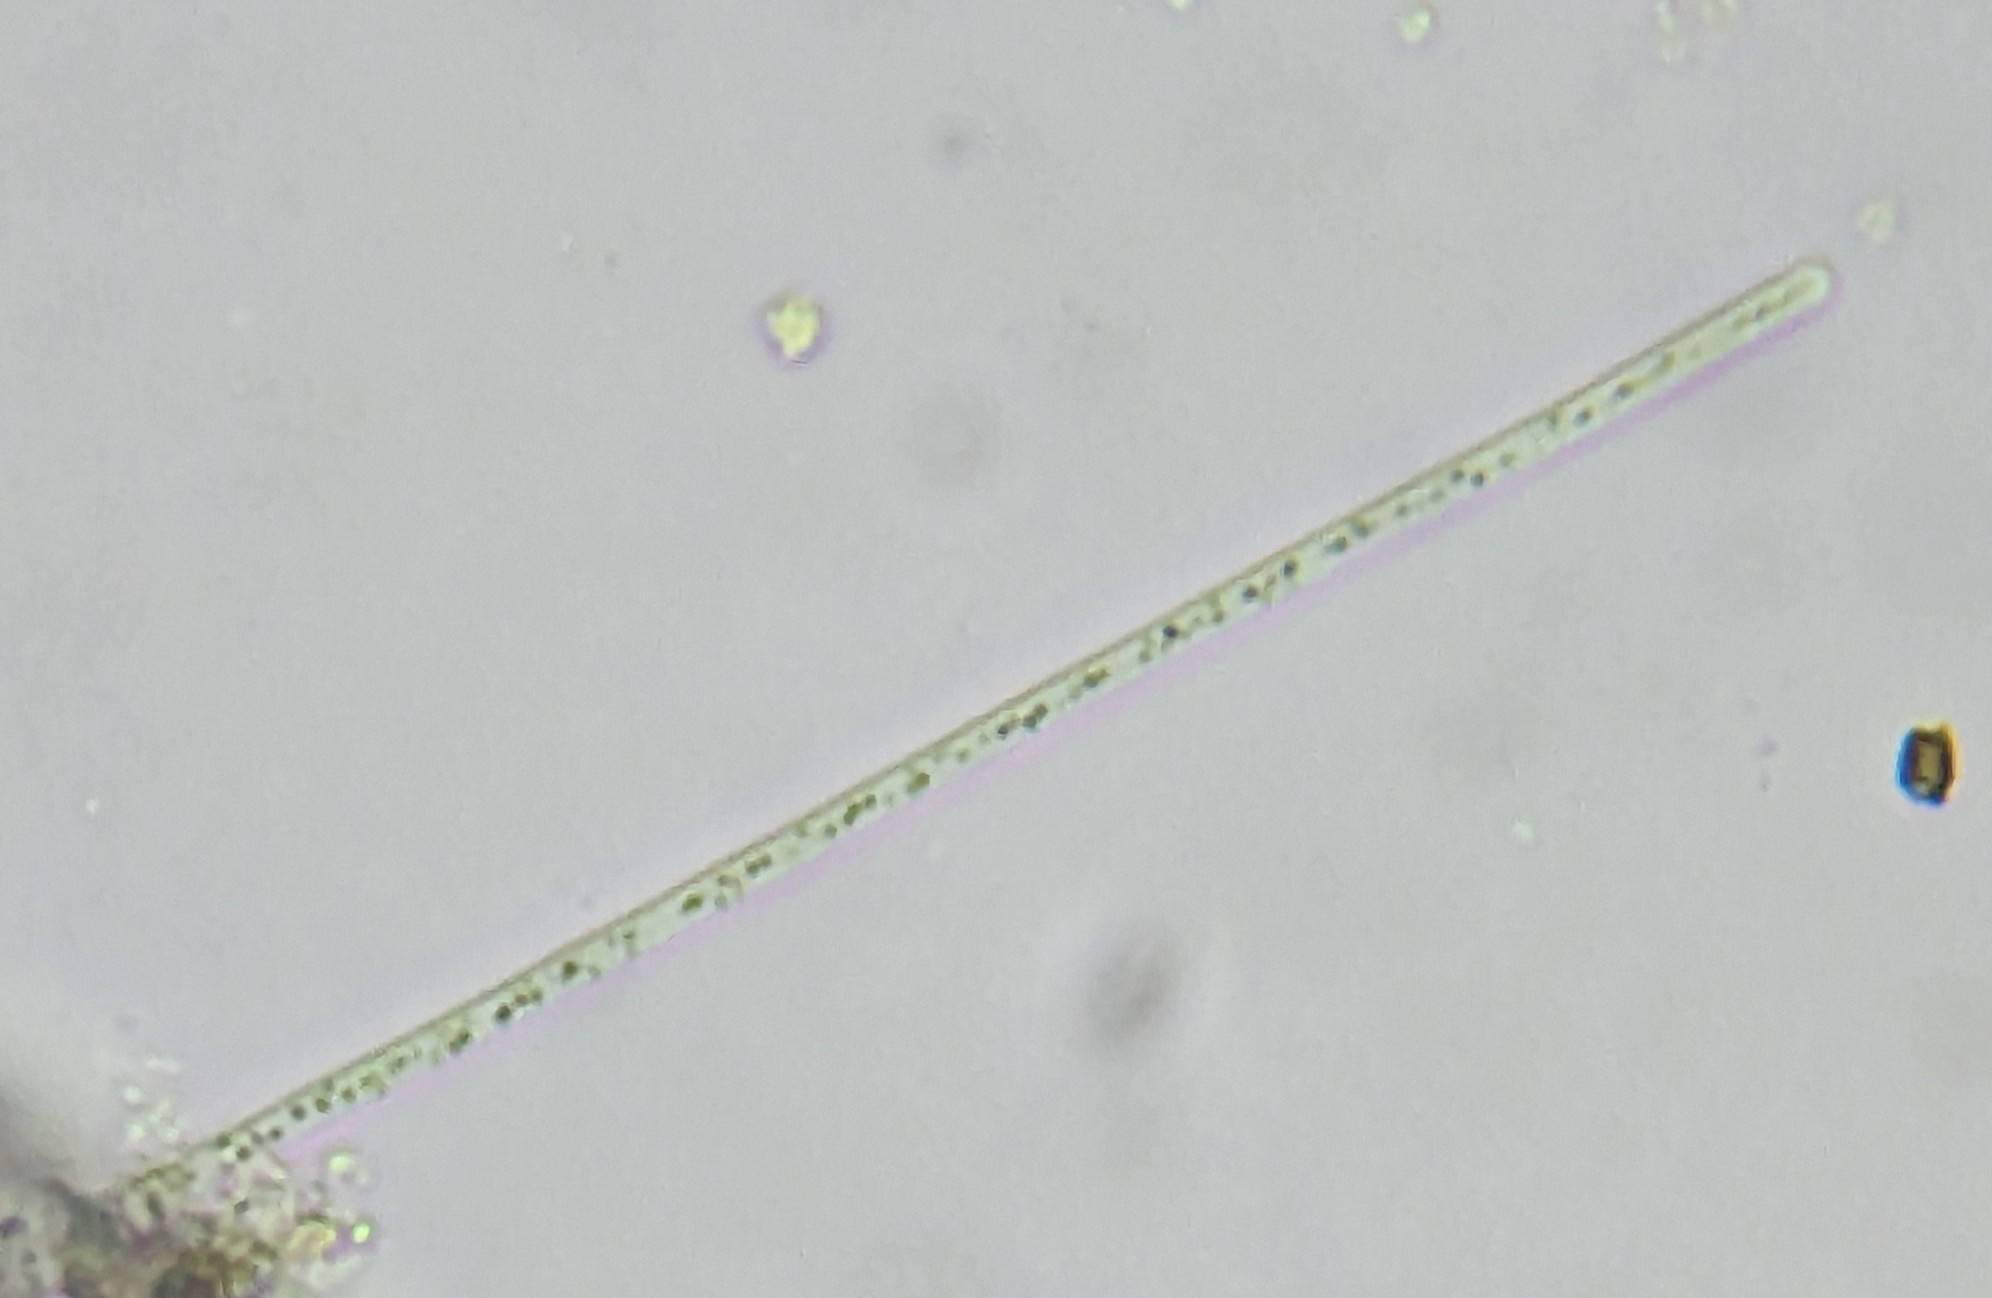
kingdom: Bacteria
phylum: Proteobacteria
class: Gammaproteobacteria
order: Beggiatoales
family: Beggiatoaceae
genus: Beggiatoa
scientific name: Beggiatoa
